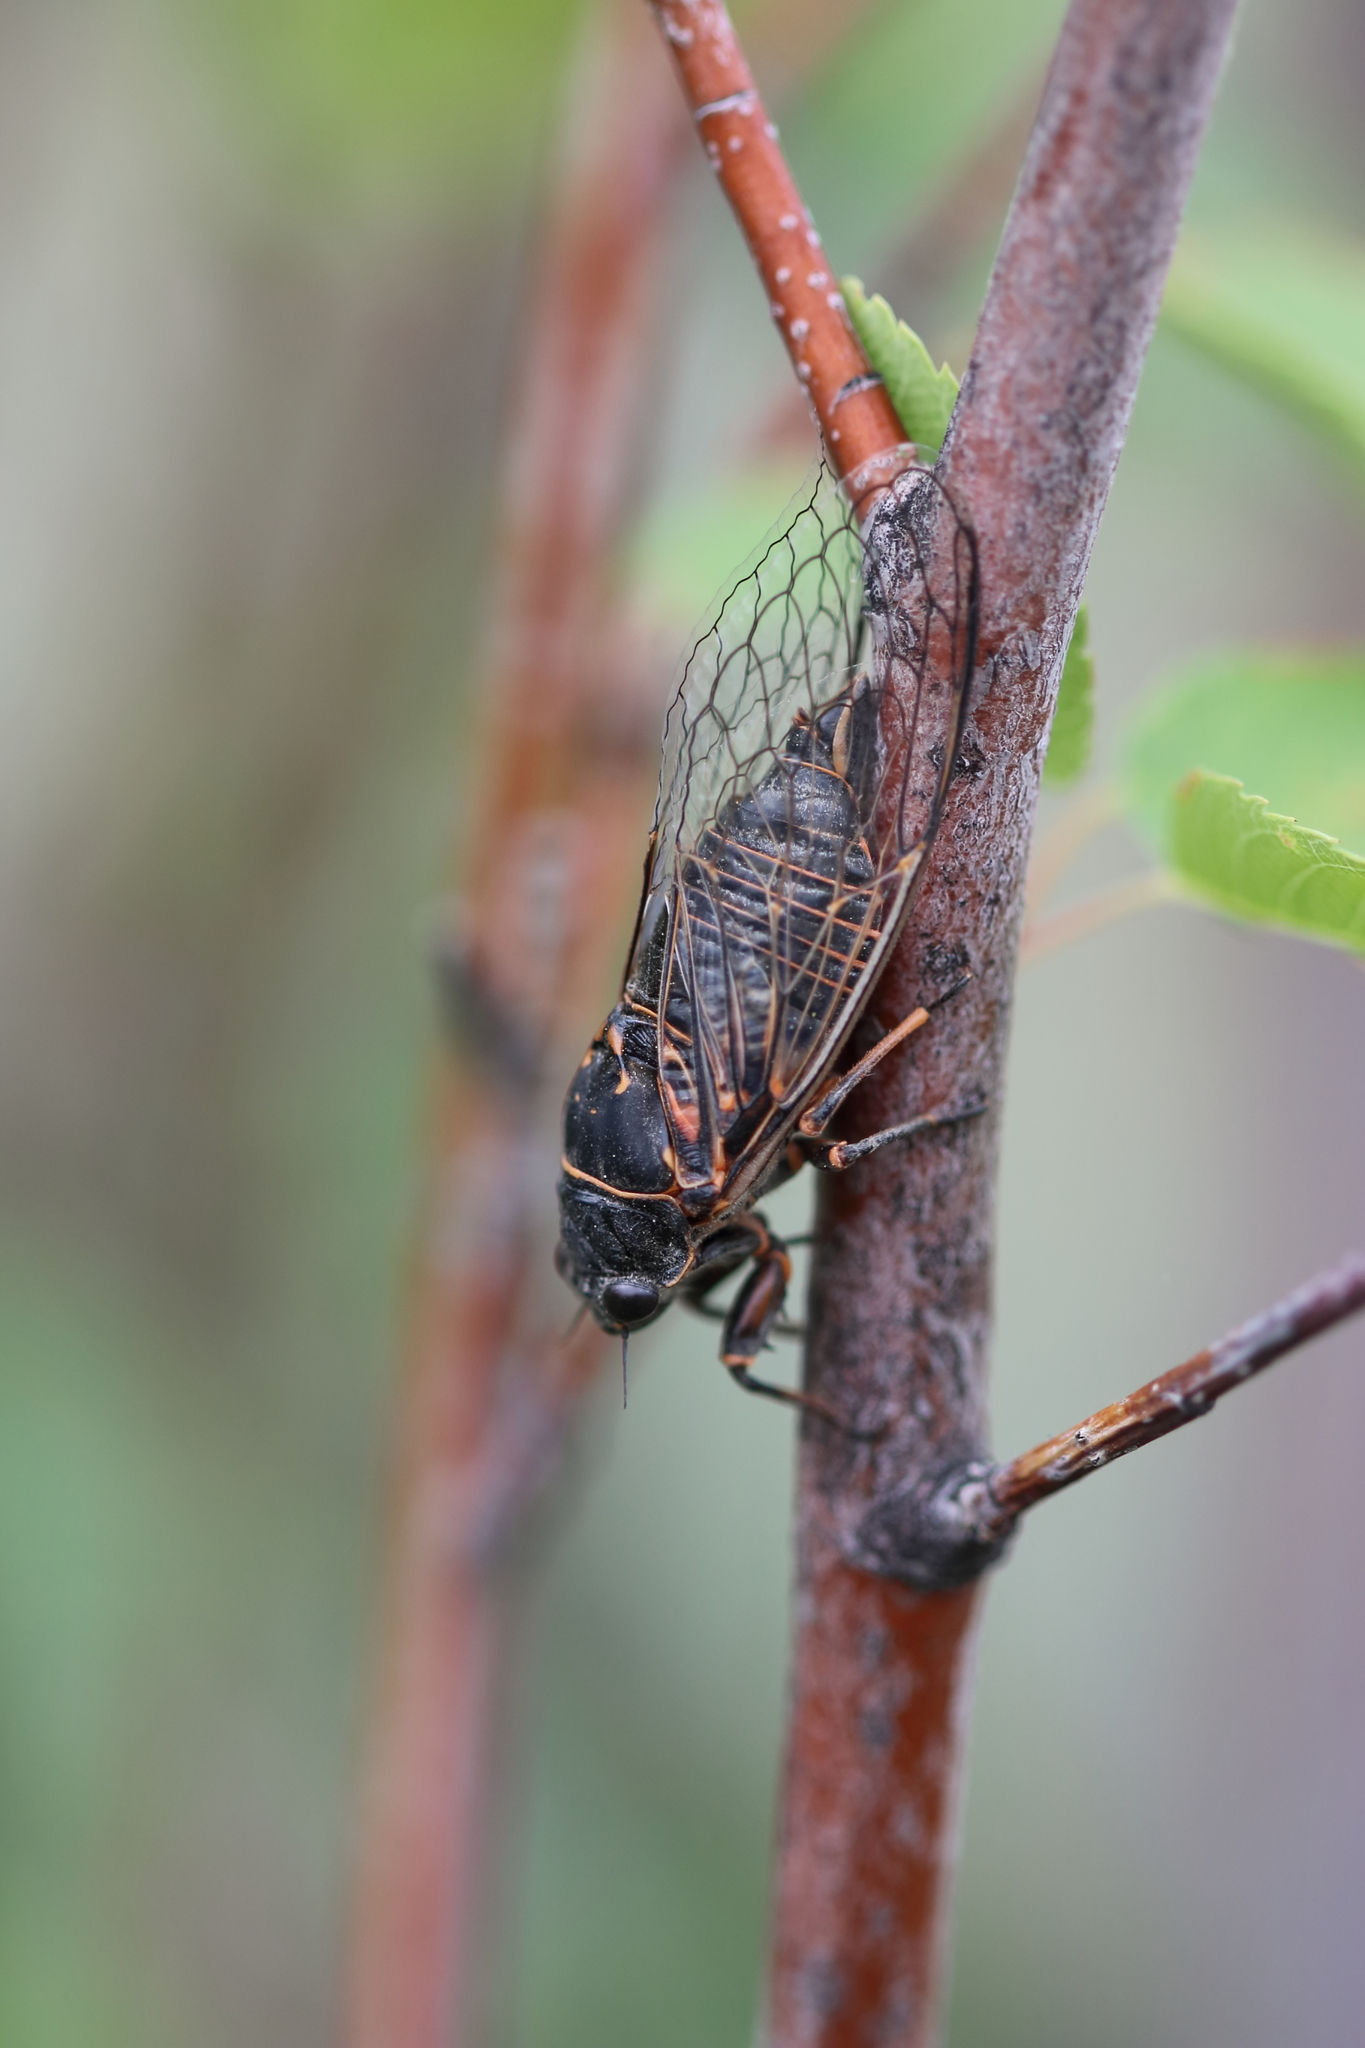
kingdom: Animalia
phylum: Arthropoda
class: Insecta
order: Hemiptera
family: Cicadidae
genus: Okanagana
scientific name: Okanagana occidentalis
